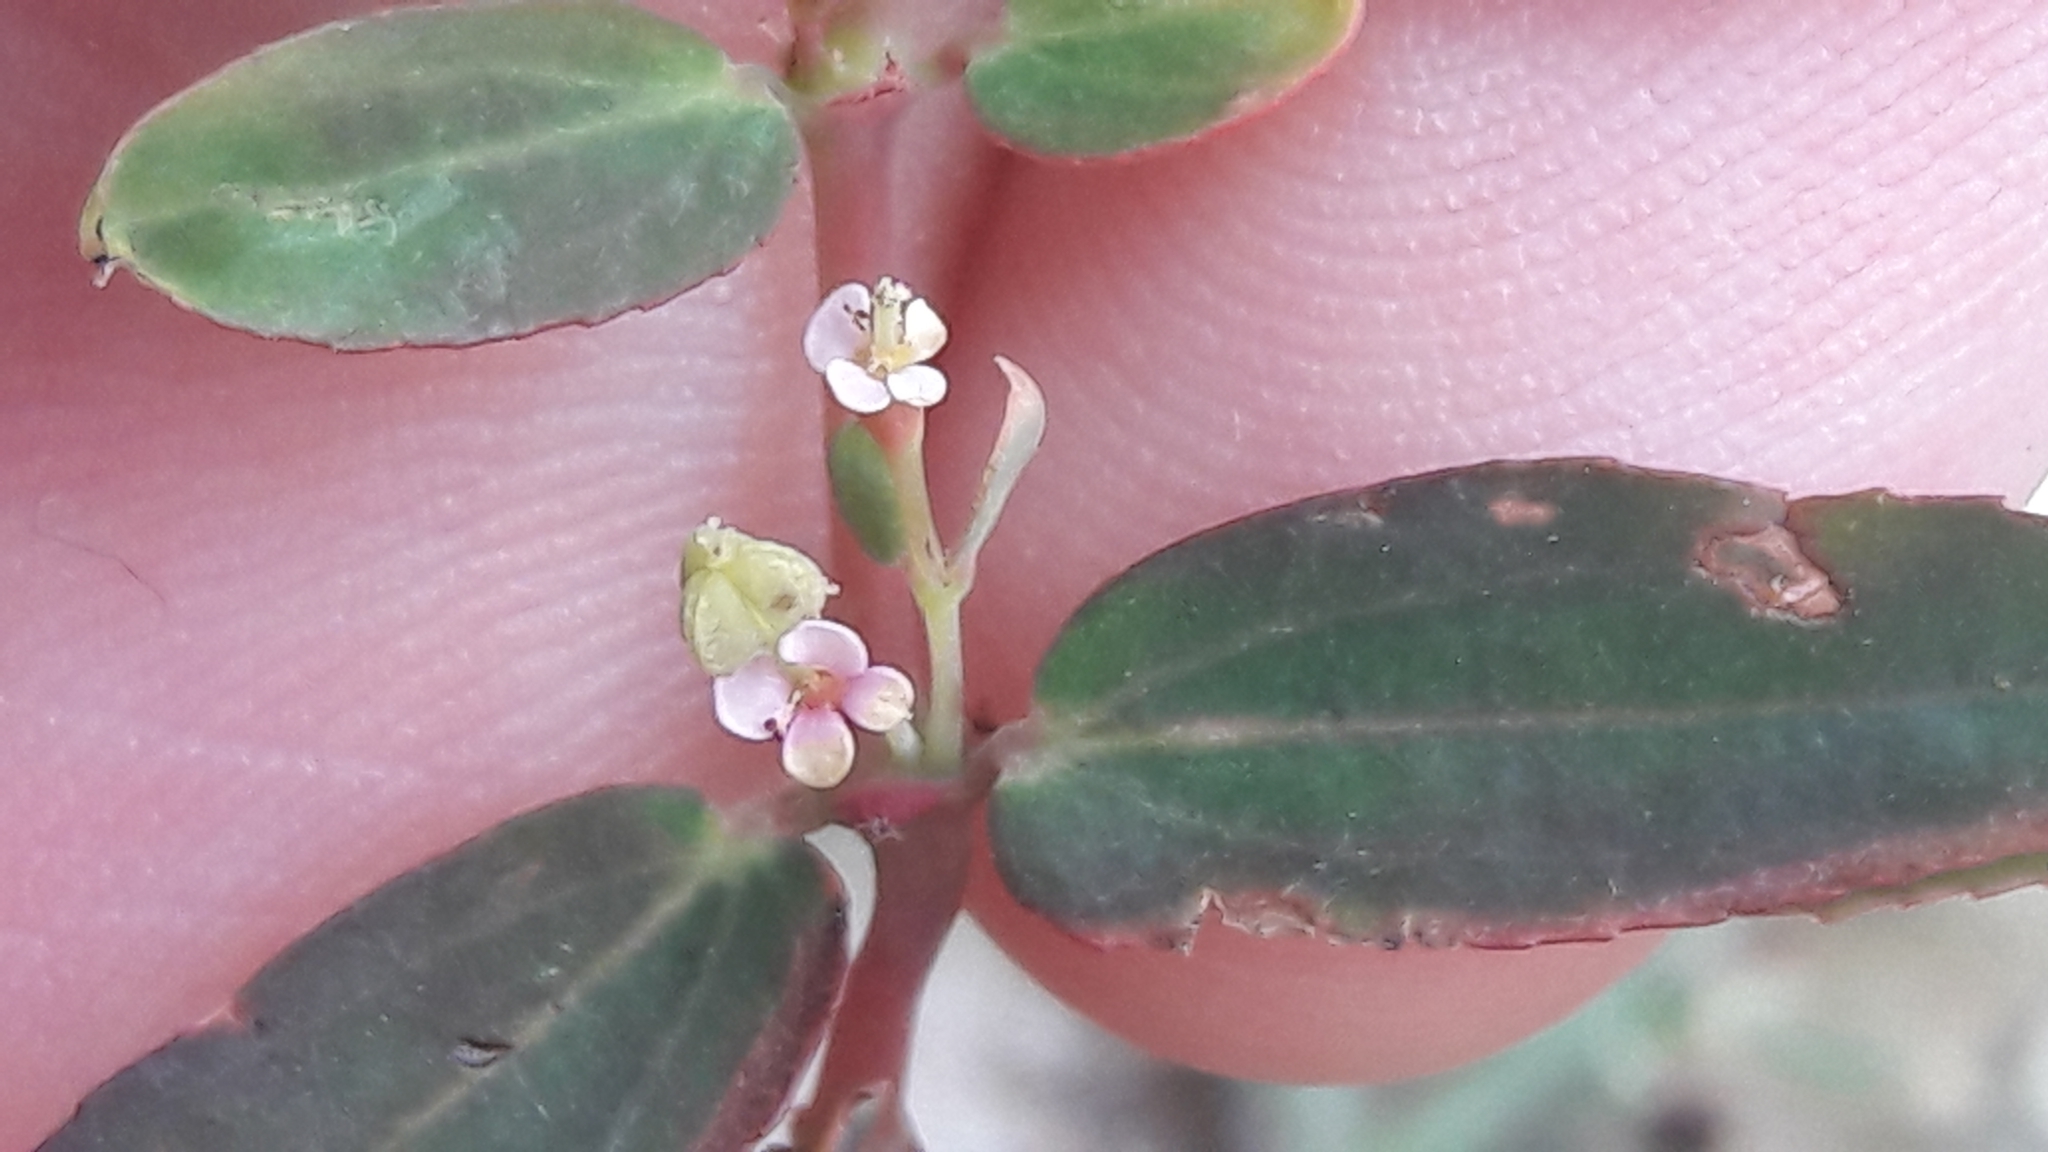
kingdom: Plantae
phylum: Tracheophyta
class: Magnoliopsida
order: Malpighiales
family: Euphorbiaceae
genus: Euphorbia
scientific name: Euphorbia hypericifolia
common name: Graceful sandmat
